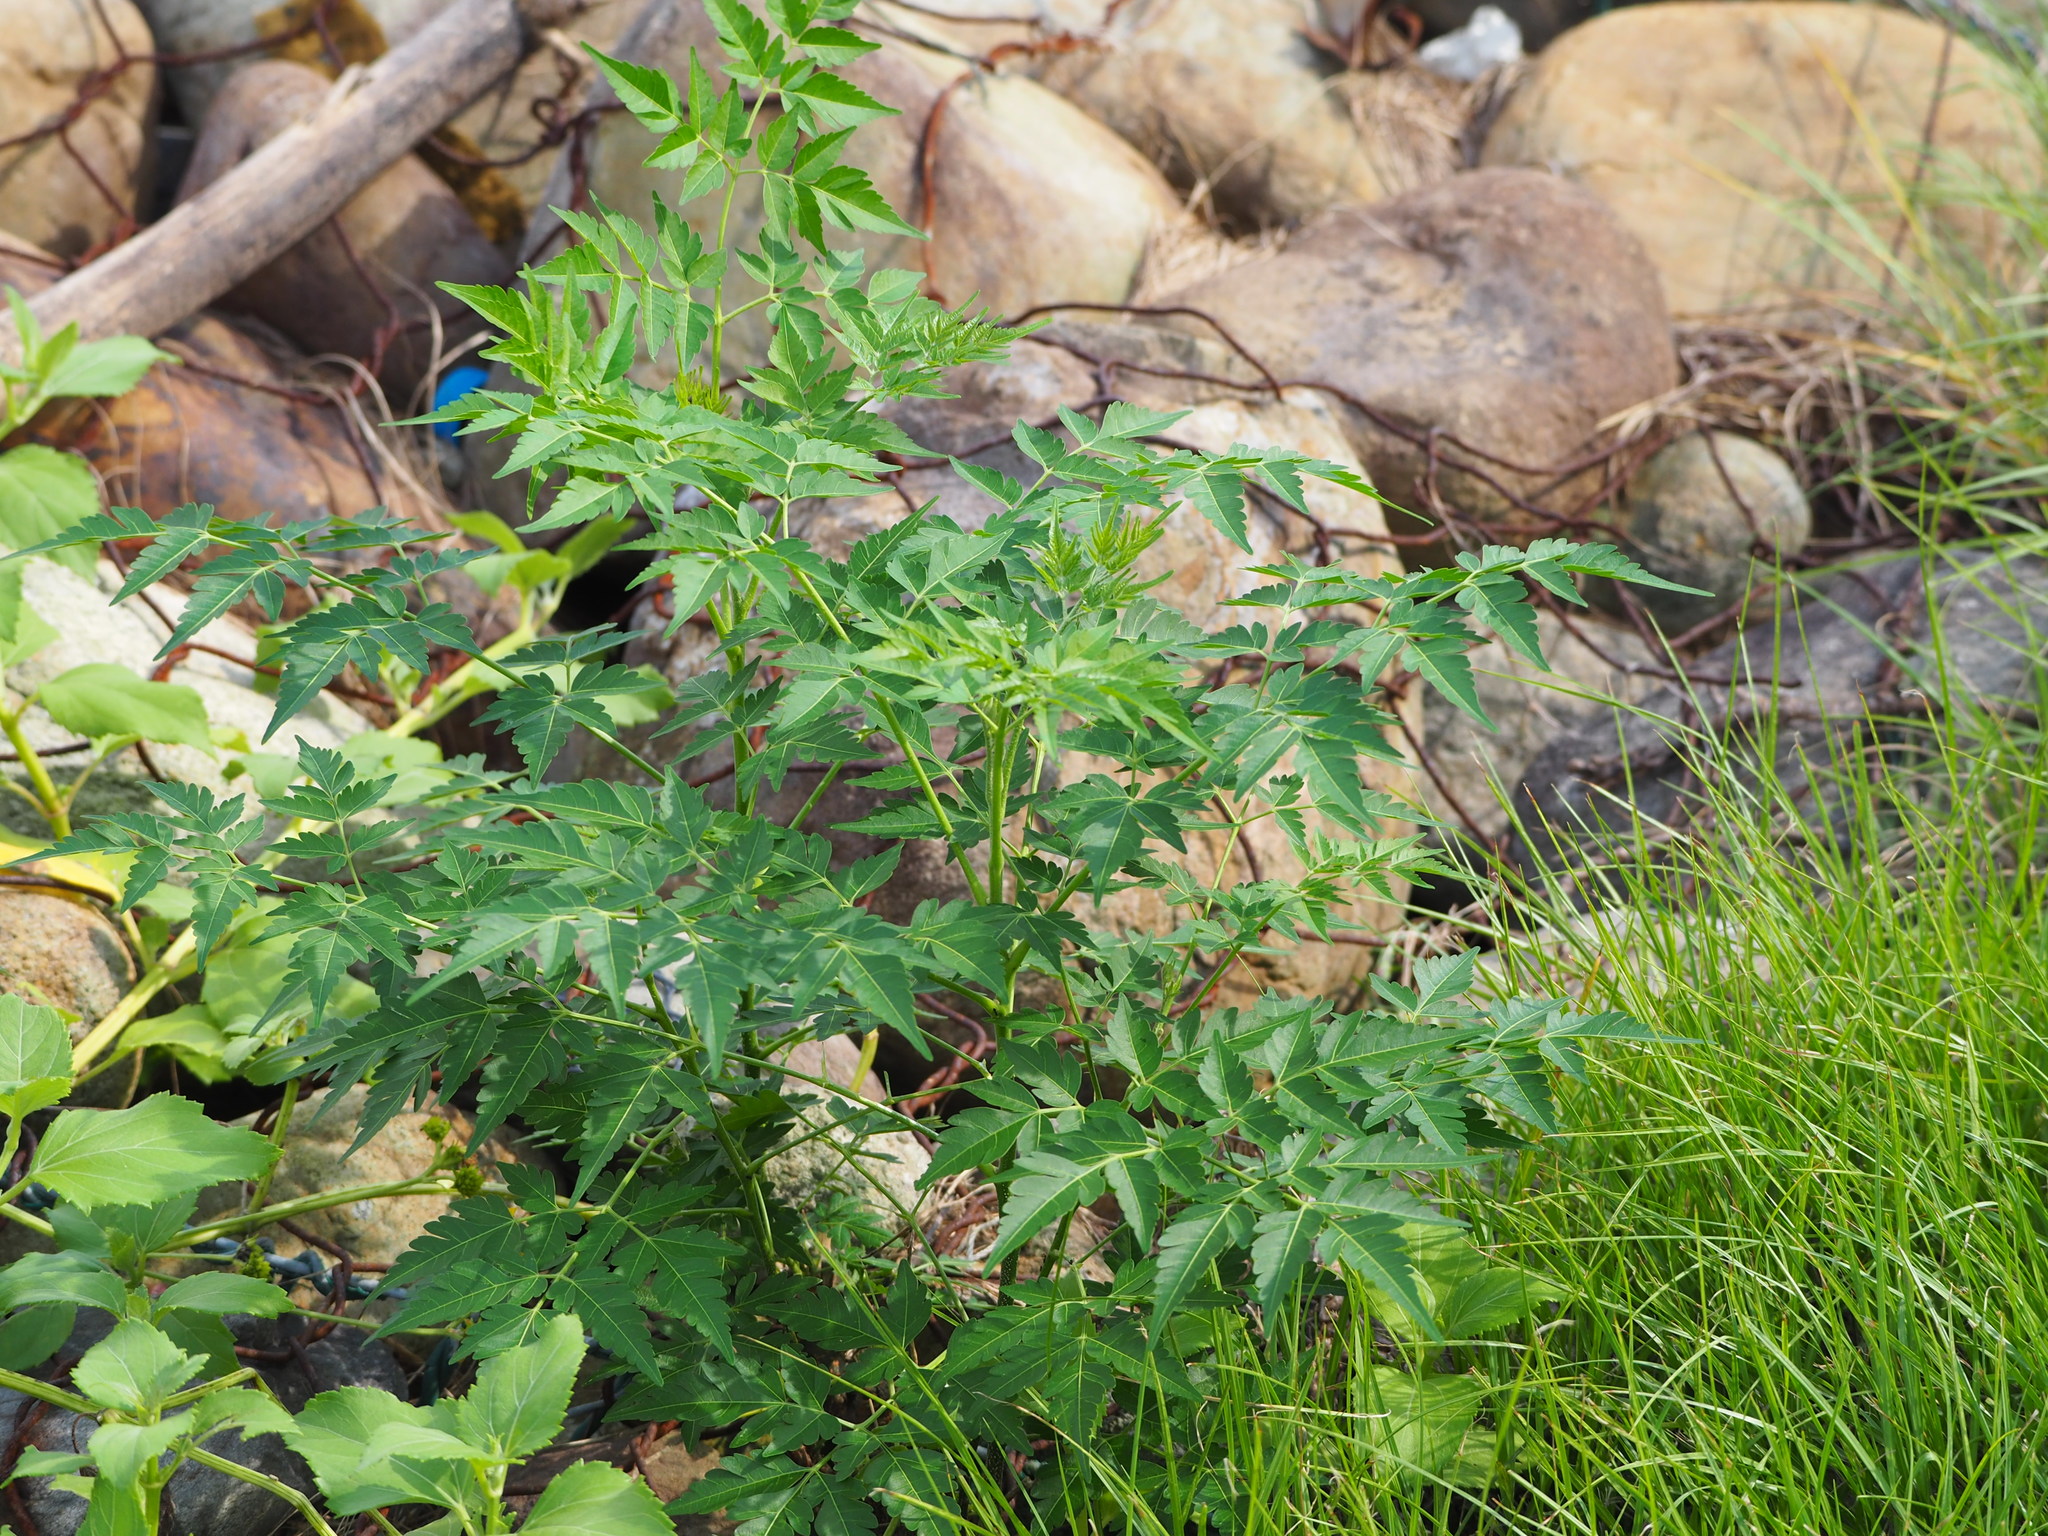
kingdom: Plantae
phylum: Tracheophyta
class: Magnoliopsida
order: Sapindales
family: Meliaceae
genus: Melia
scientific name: Melia azedarach
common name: Chinaberrytree
